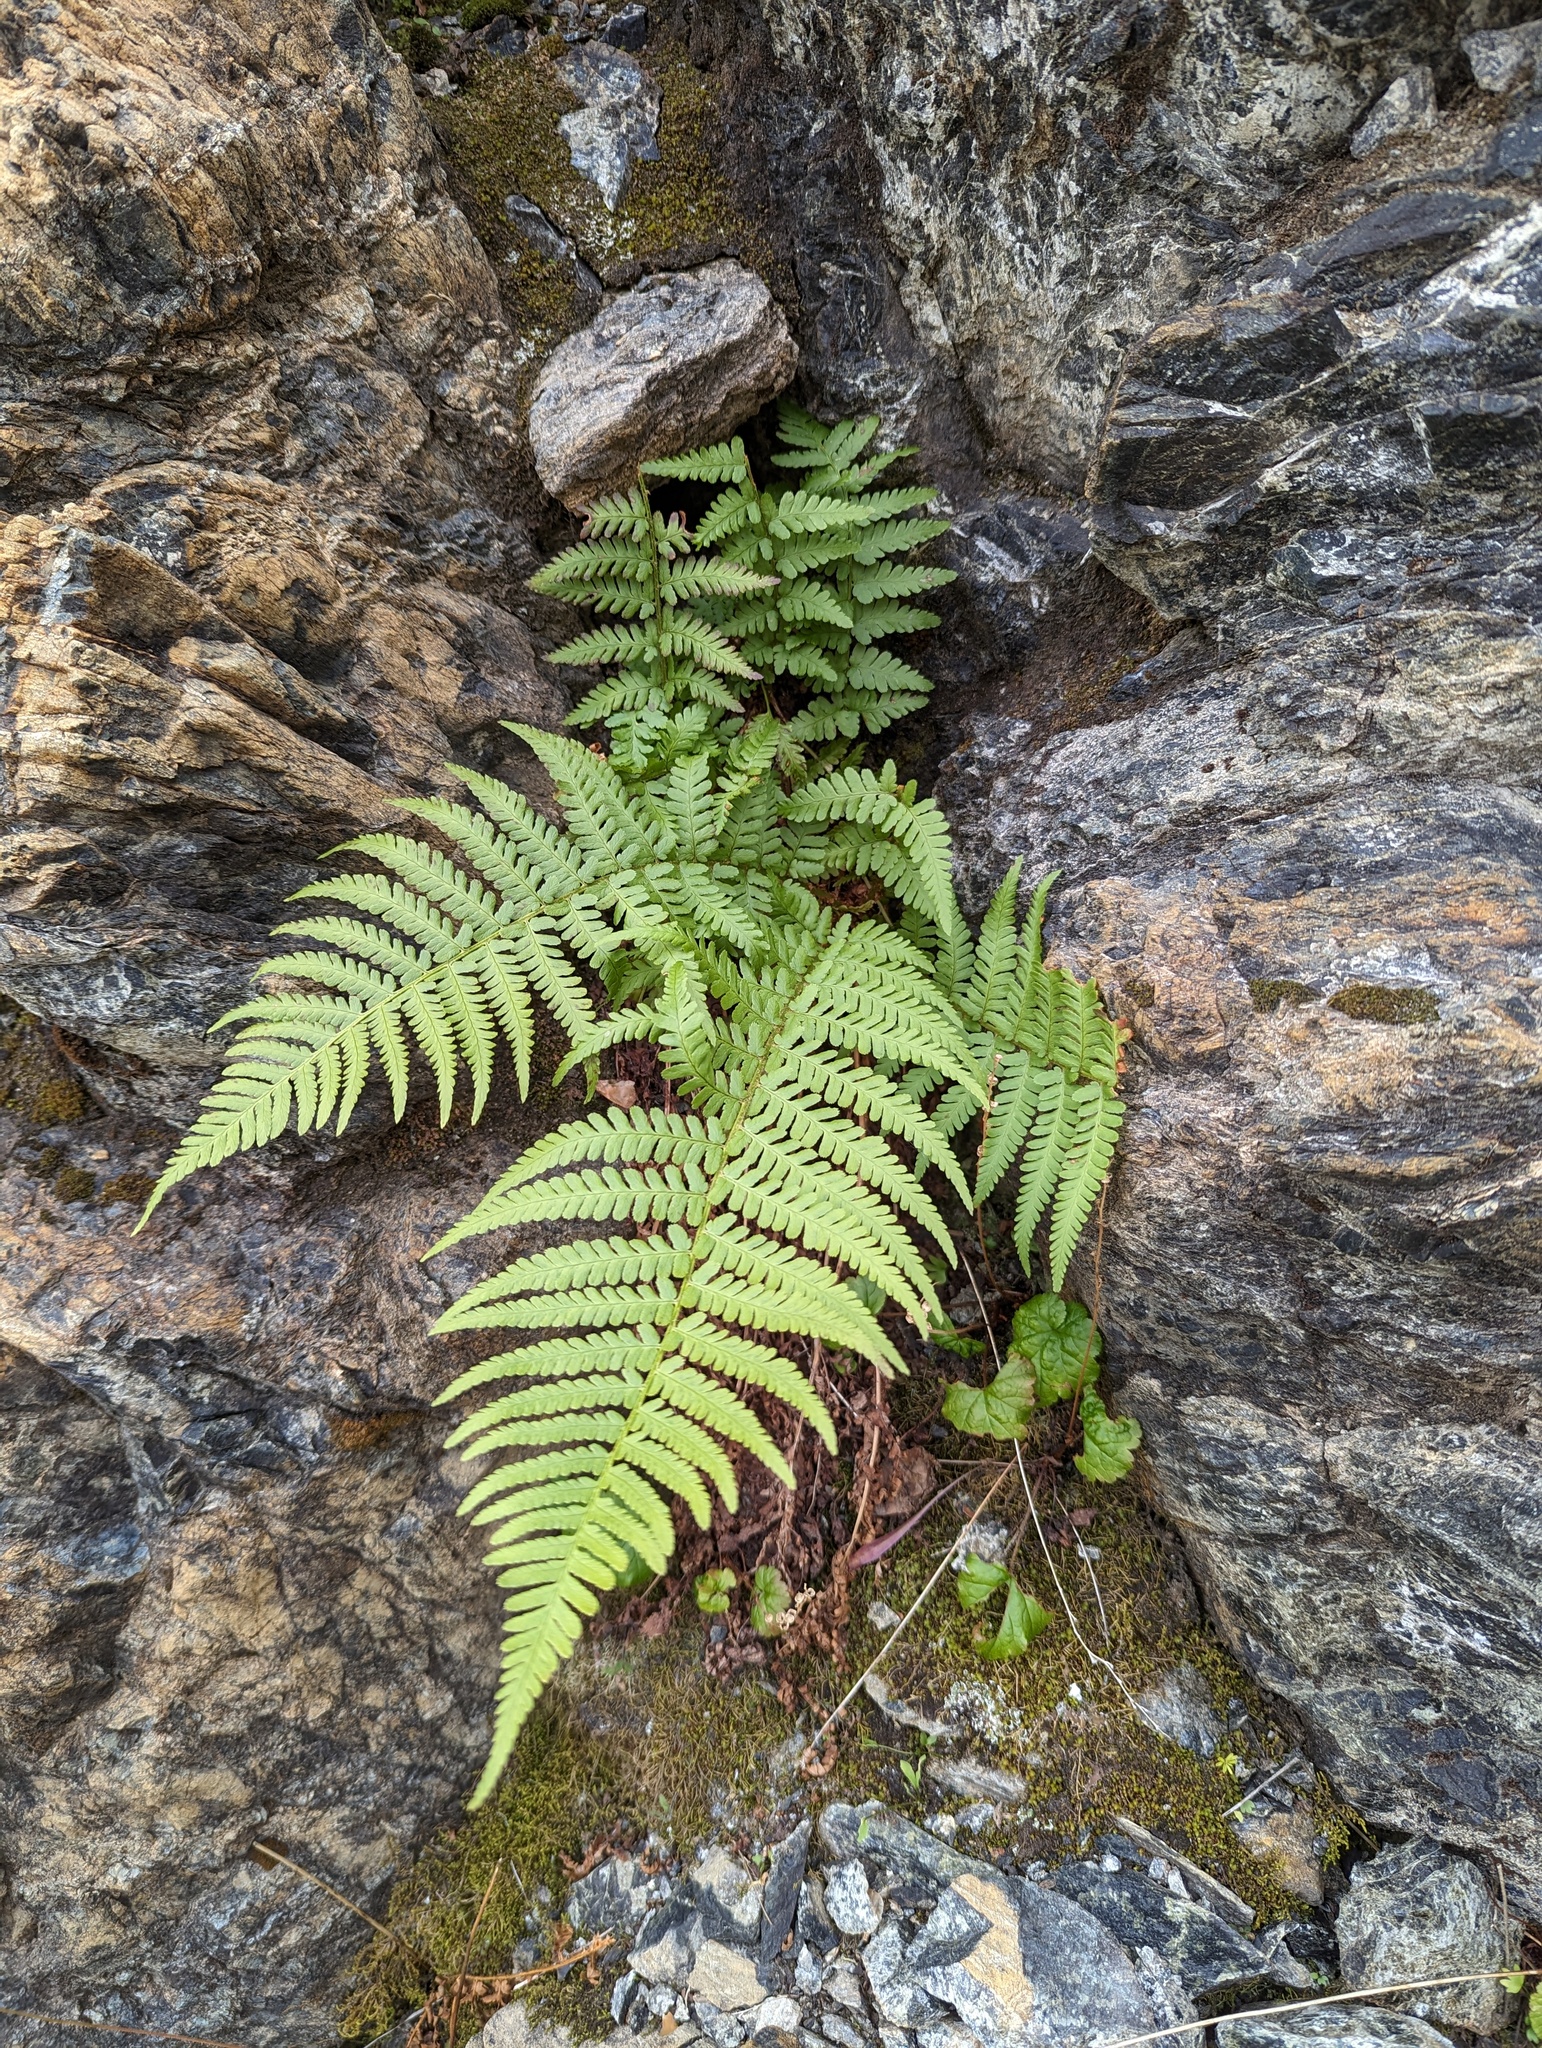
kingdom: Plantae
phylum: Tracheophyta
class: Polypodiopsida
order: Polypodiales
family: Dryopteridaceae
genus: Dryopteris
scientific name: Dryopteris filix-mas
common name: Male fern
